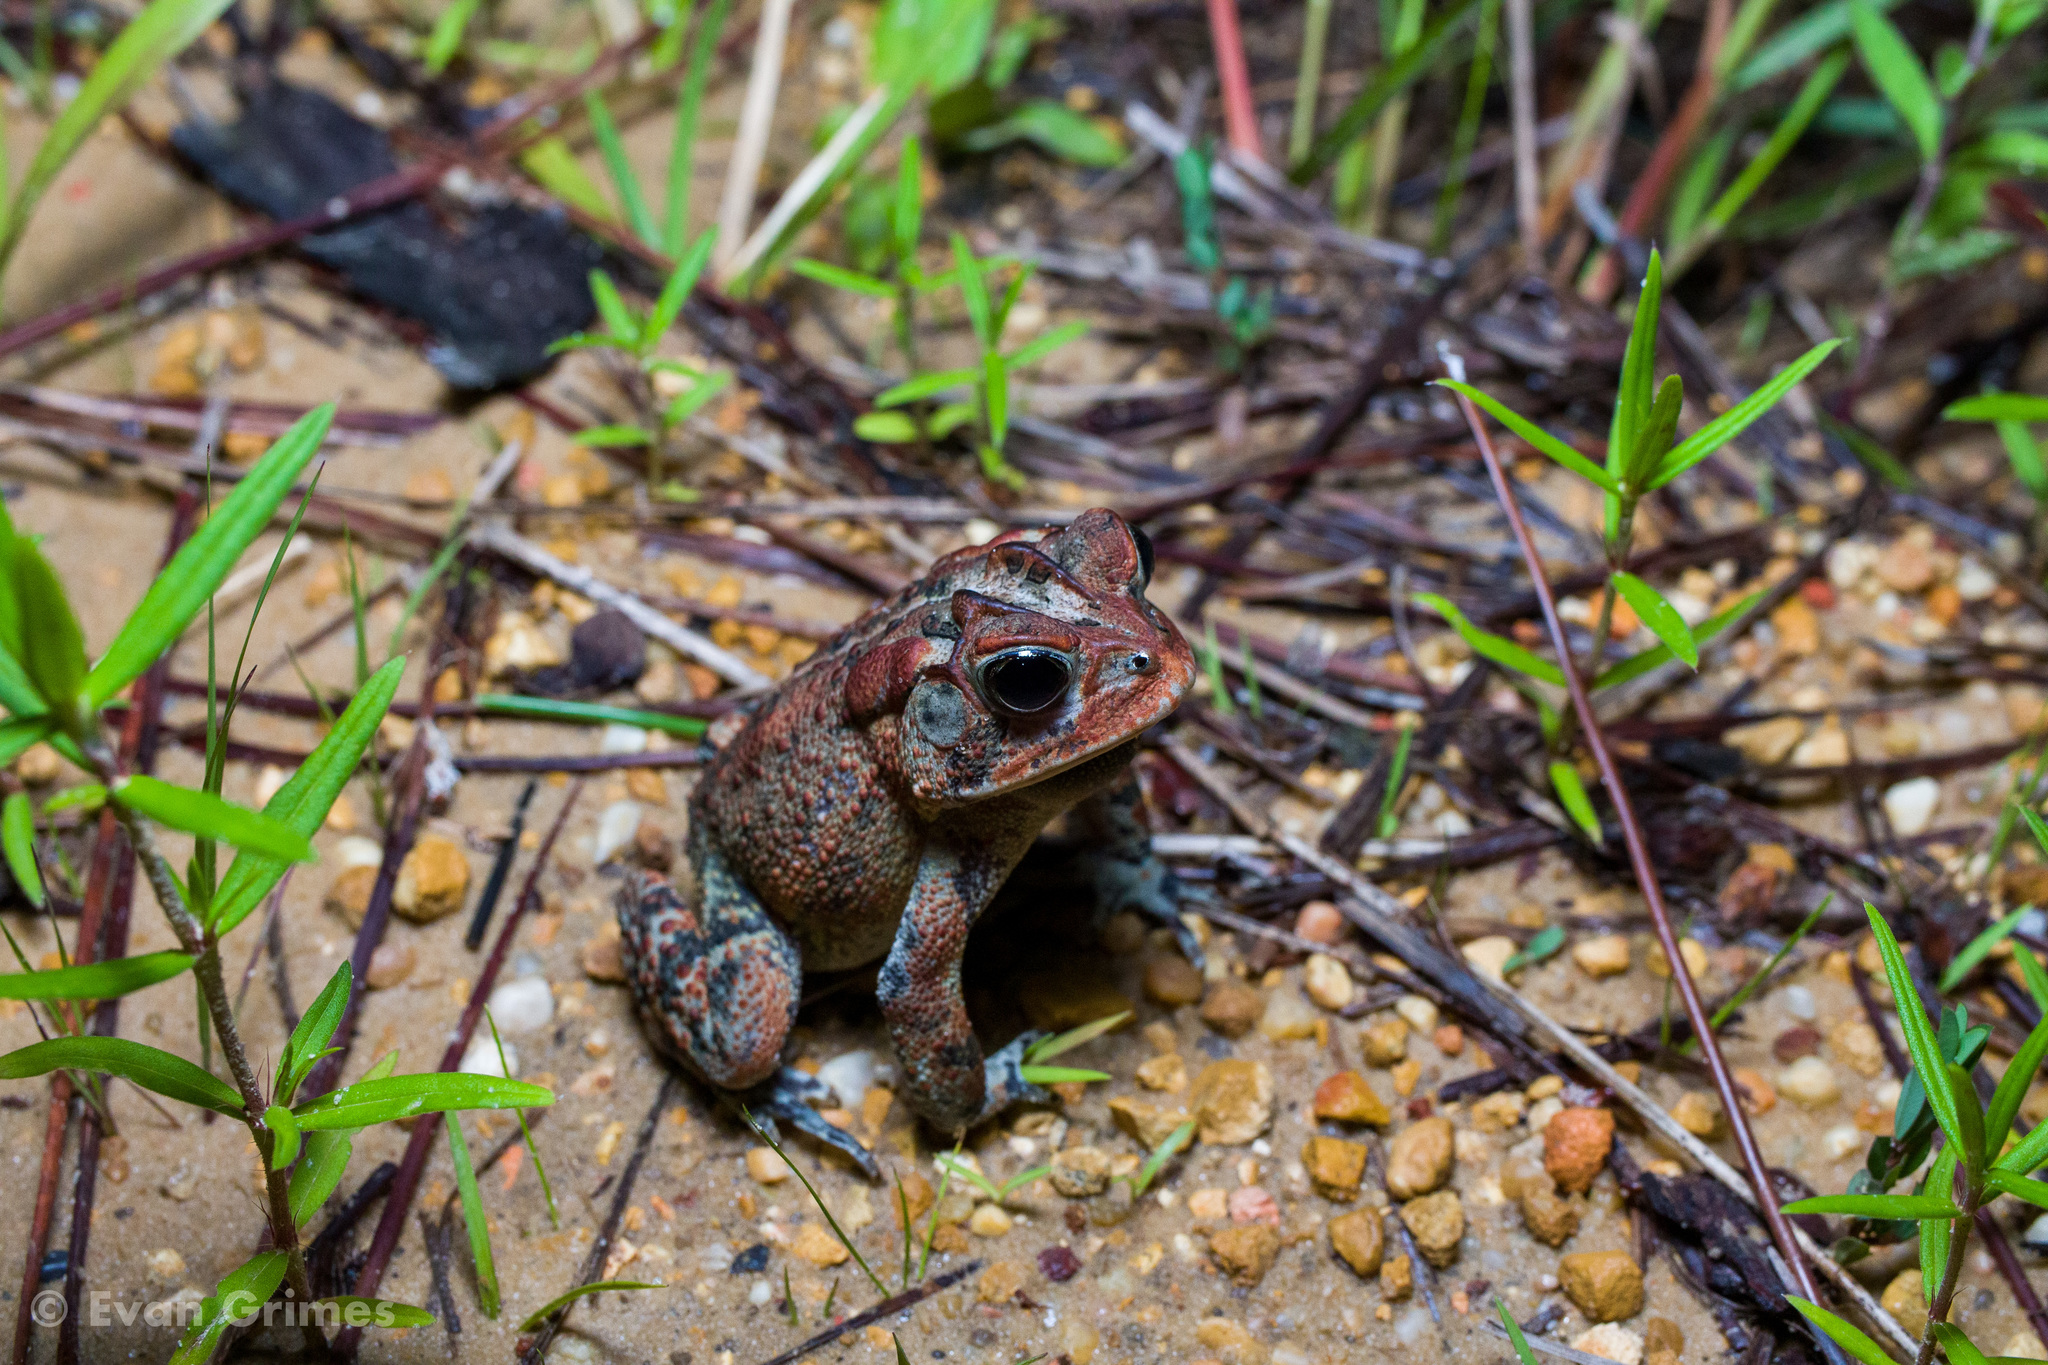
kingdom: Animalia
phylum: Chordata
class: Amphibia
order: Anura
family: Bufonidae
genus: Anaxyrus
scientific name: Anaxyrus terrestris
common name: Southern toad
